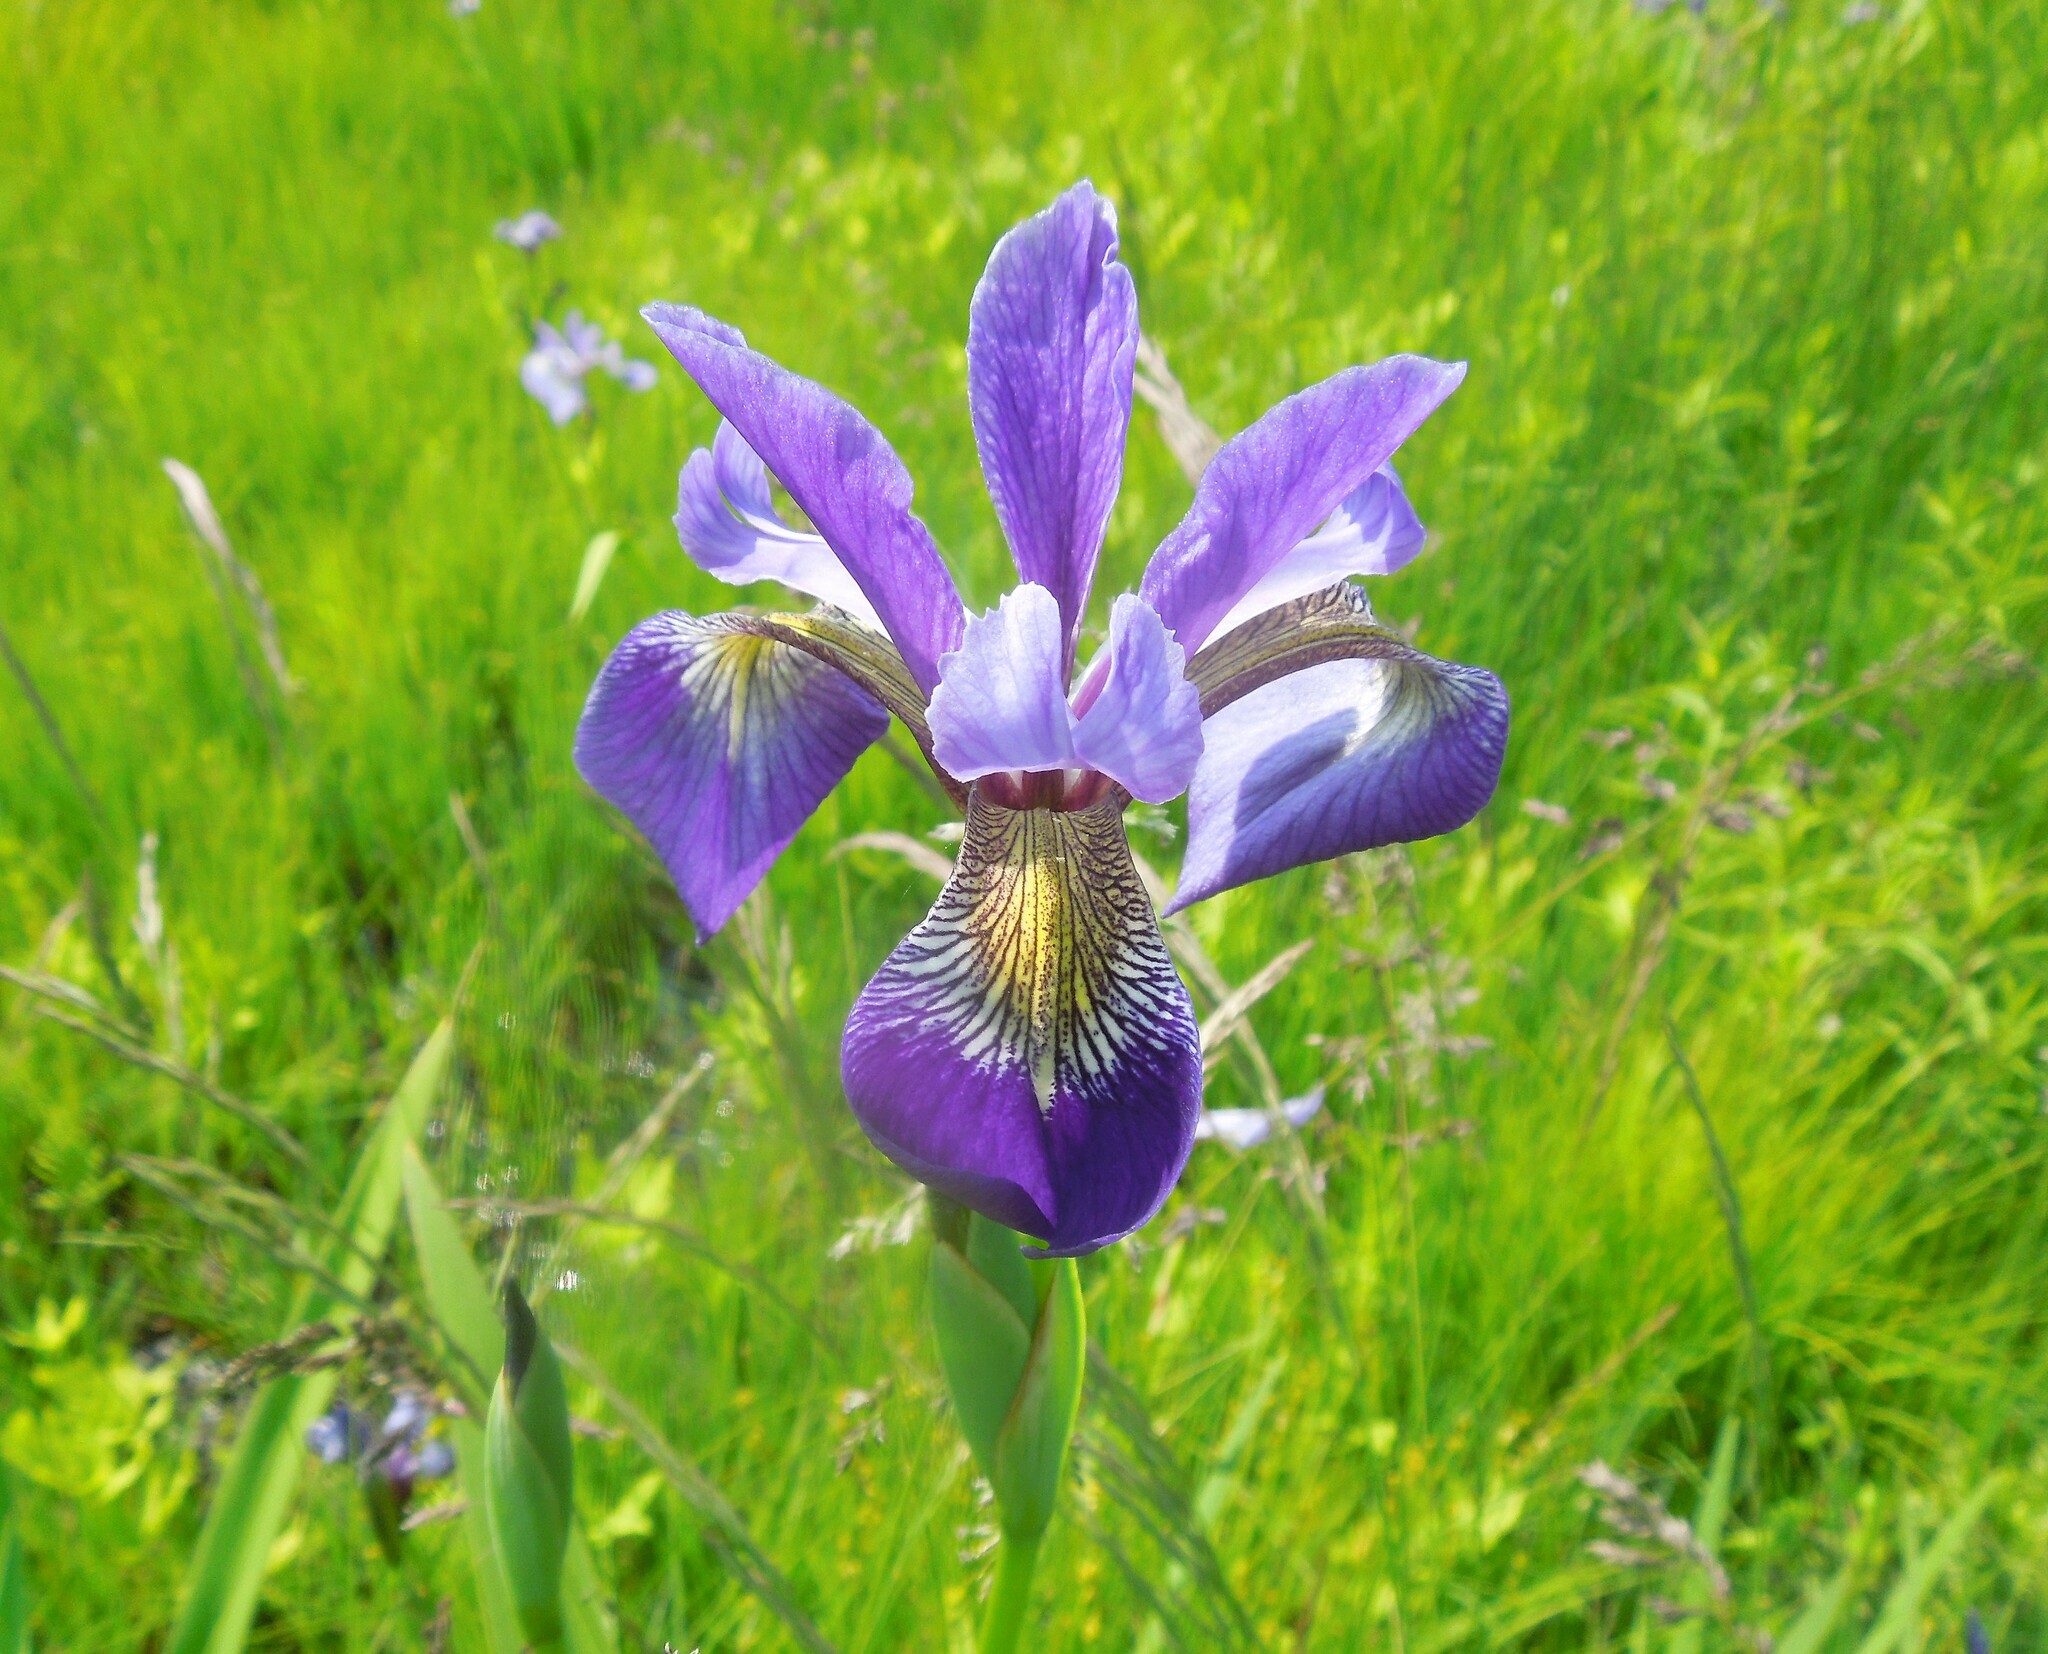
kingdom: Plantae
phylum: Tracheophyta
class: Liliopsida
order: Asparagales
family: Iridaceae
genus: Iris
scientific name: Iris versicolor
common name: Purple iris
